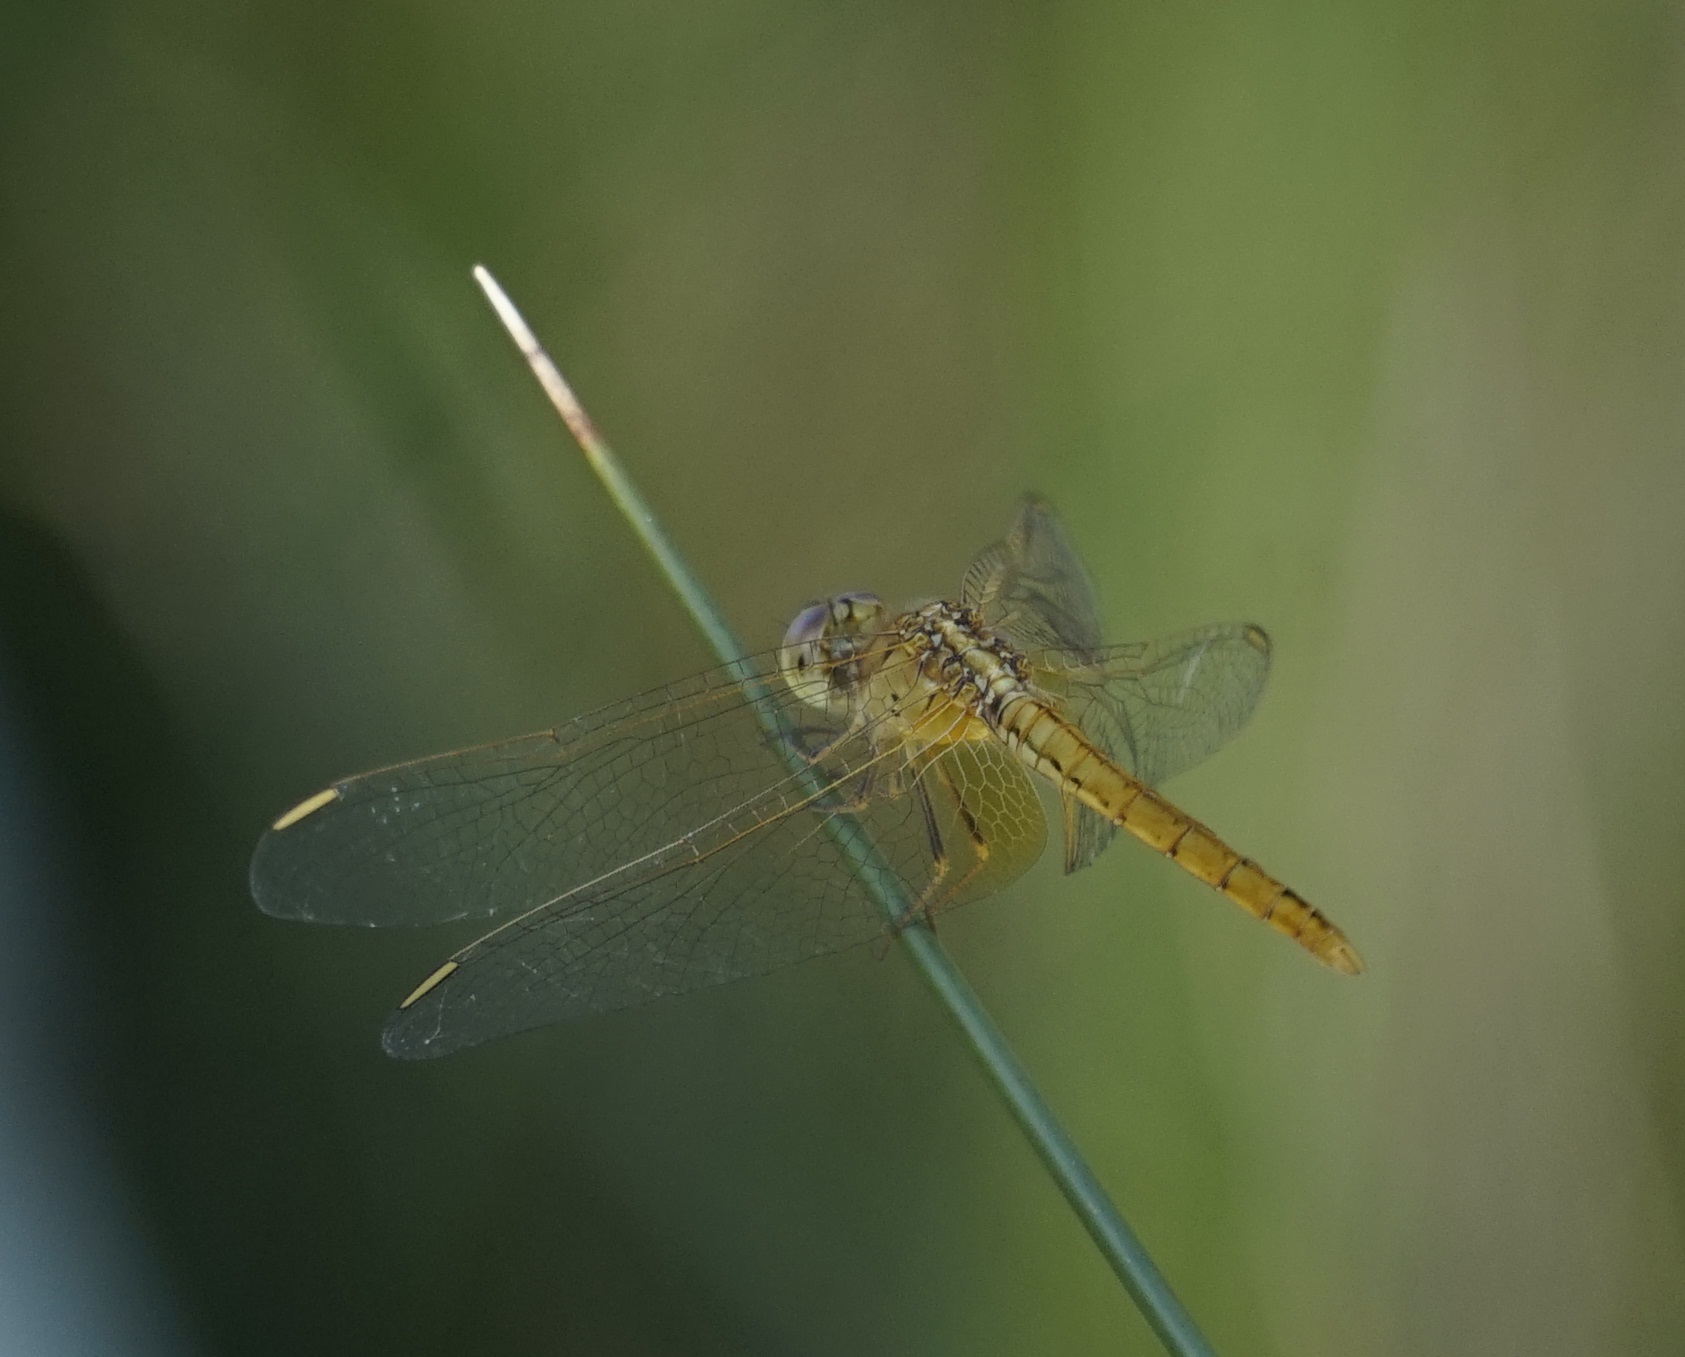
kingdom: Animalia
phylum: Arthropoda
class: Insecta
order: Odonata
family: Libellulidae
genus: Diplacodes
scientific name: Diplacodes haematodes
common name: Scarlet percher
